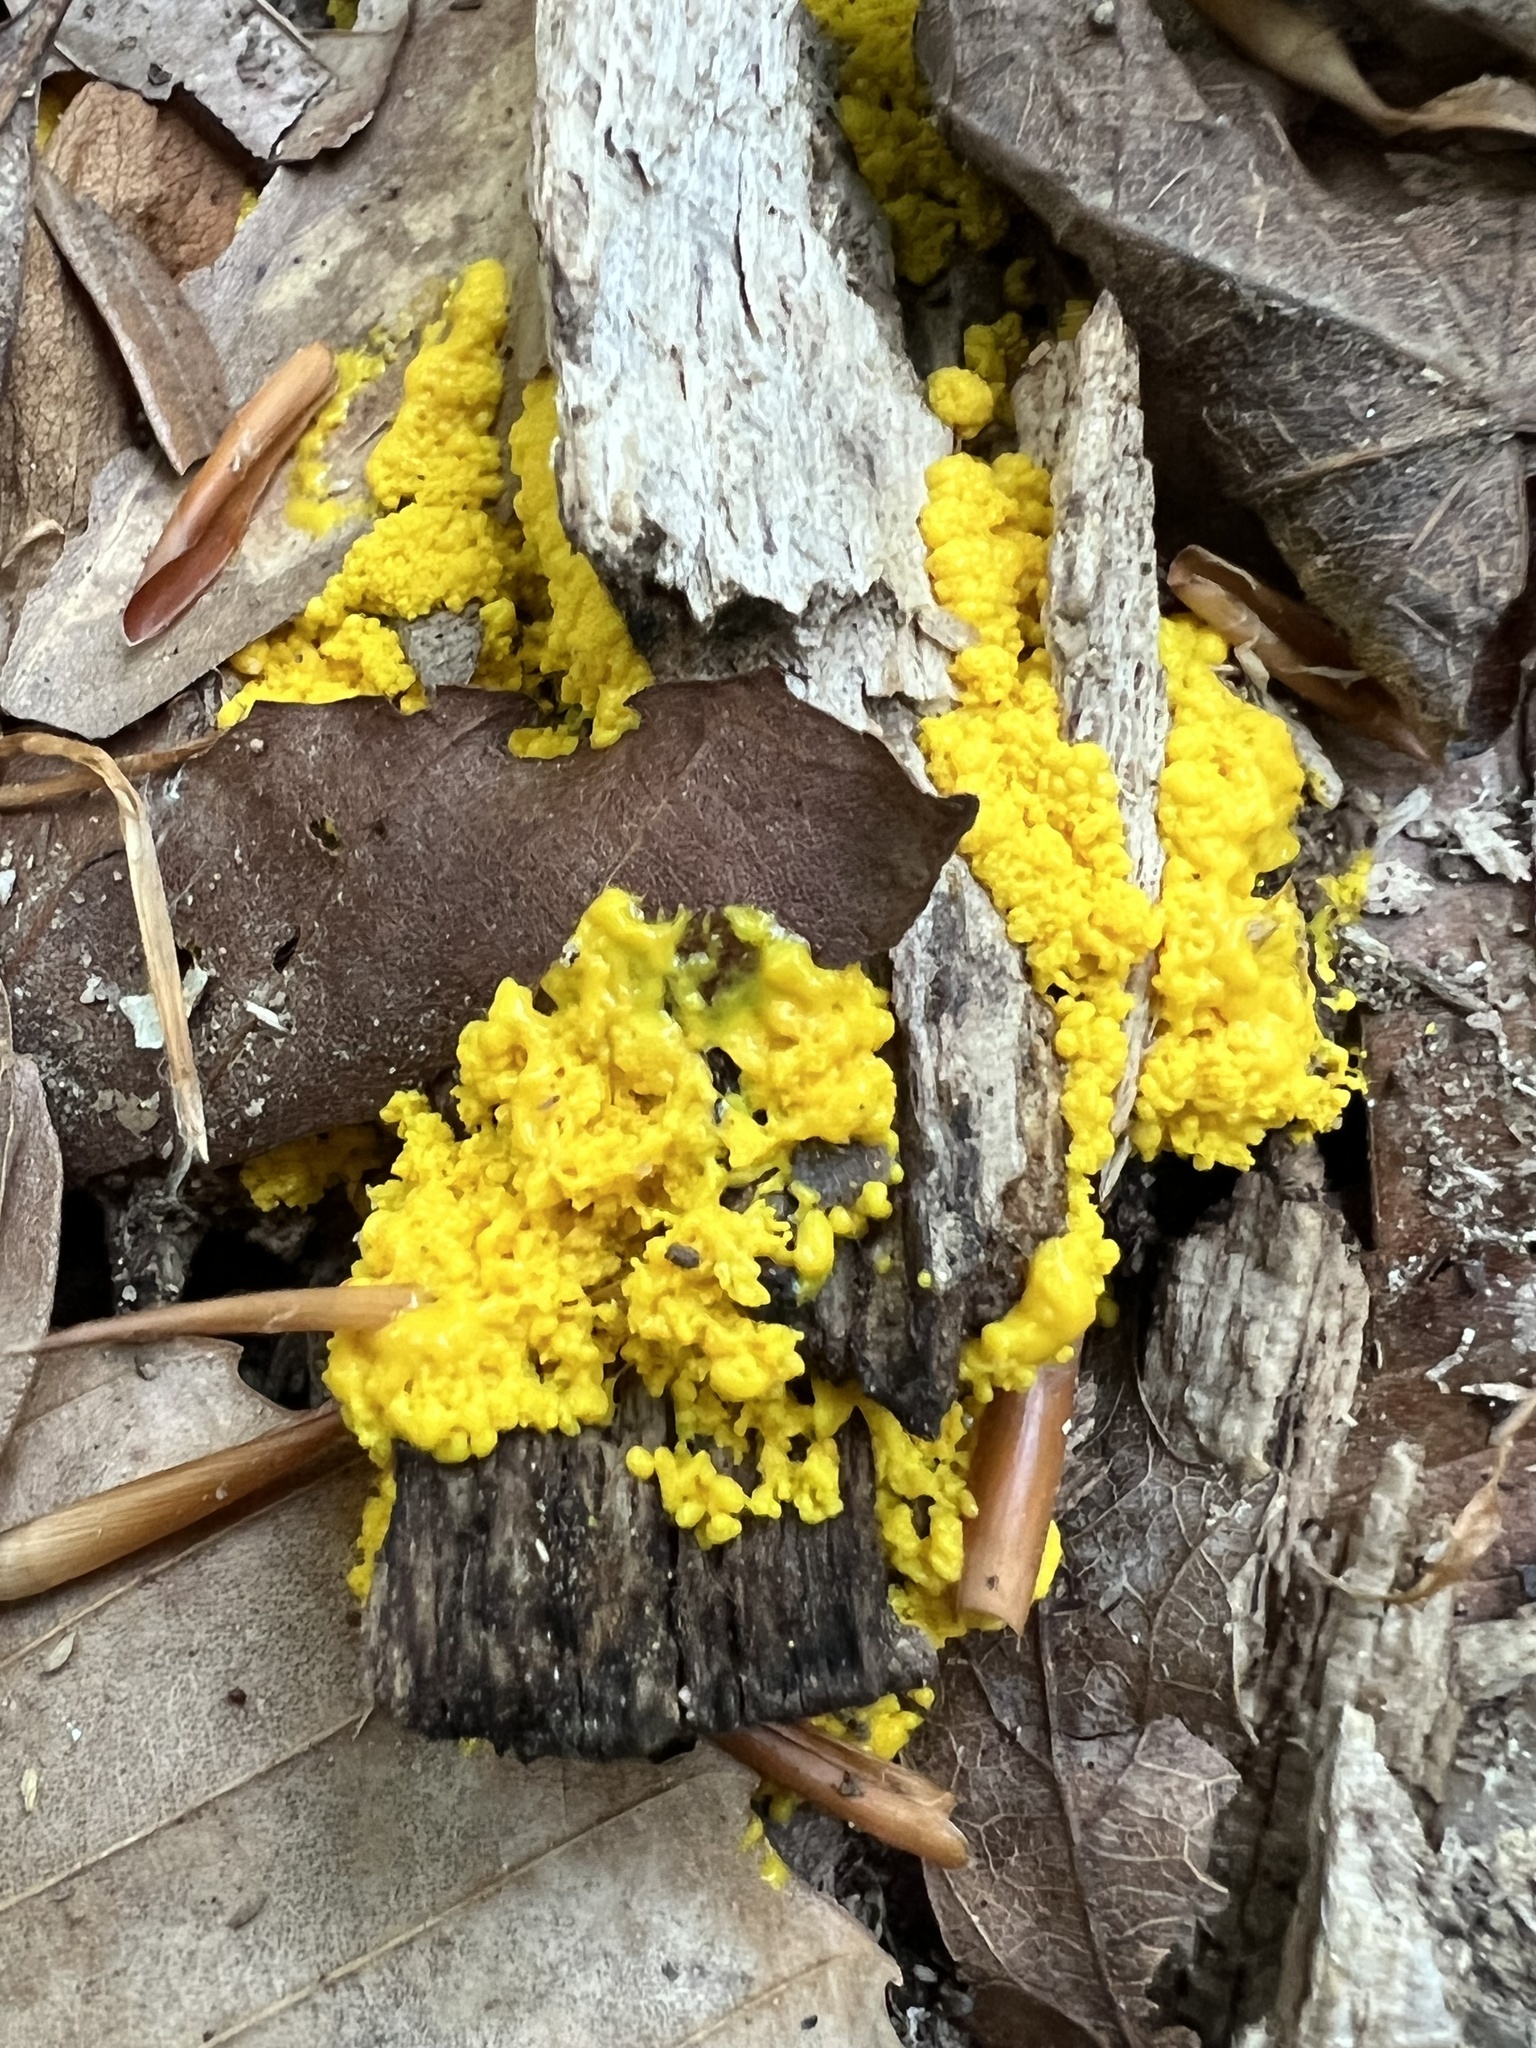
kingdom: Protozoa
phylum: Mycetozoa
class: Myxomycetes
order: Physarales
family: Physaraceae
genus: Fuligo
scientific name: Fuligo septica
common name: Dog vomit slime mold
